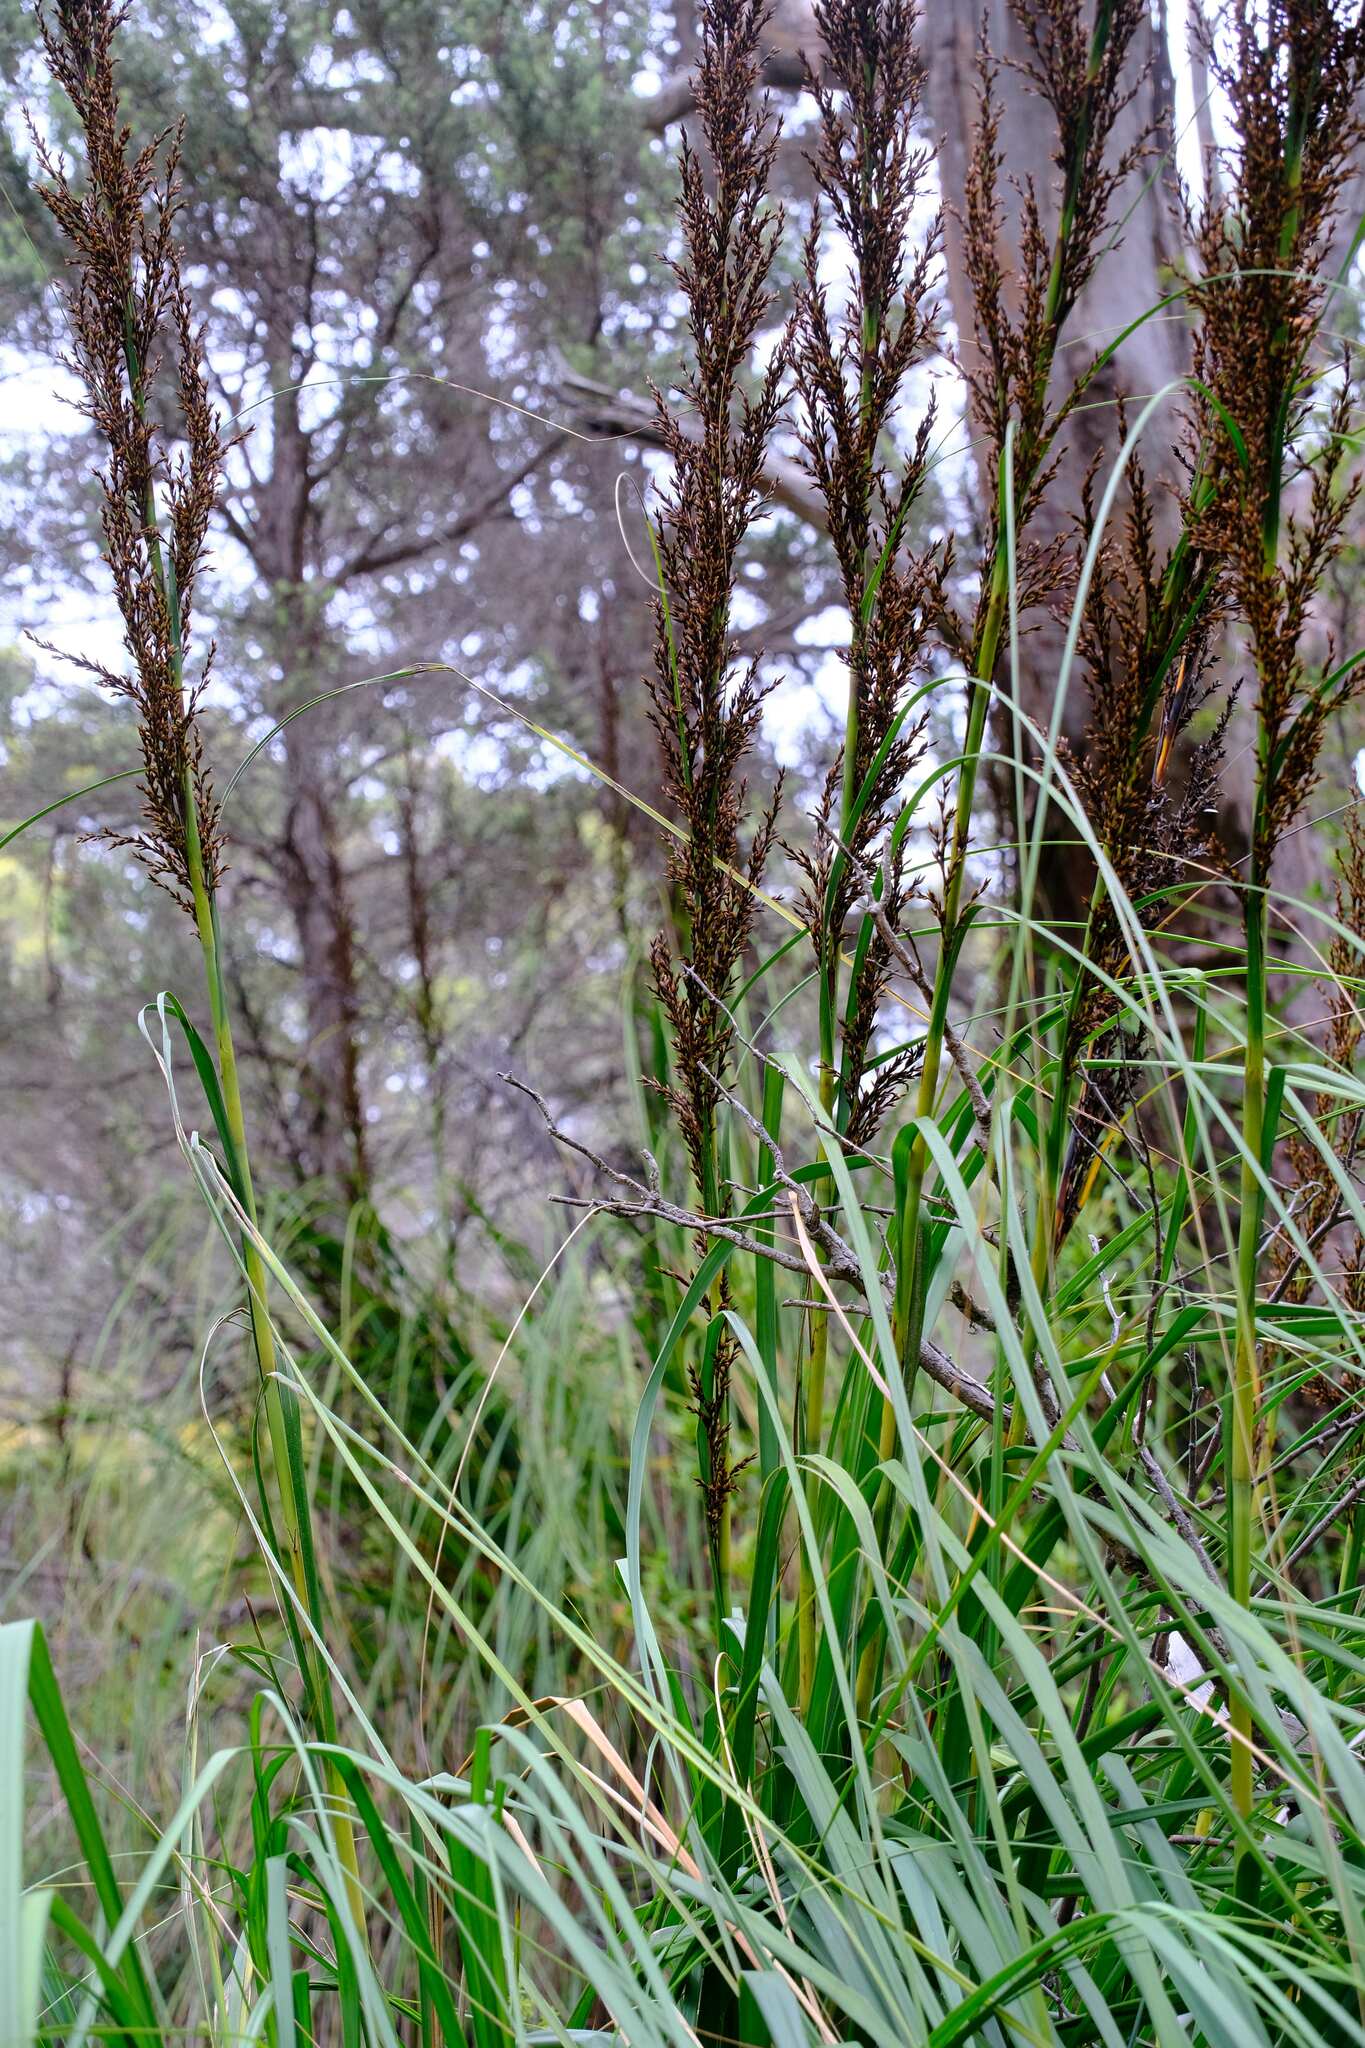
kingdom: Plantae
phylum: Tracheophyta
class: Liliopsida
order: Poales
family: Cyperaceae
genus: Gahnia
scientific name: Gahnia grandis
